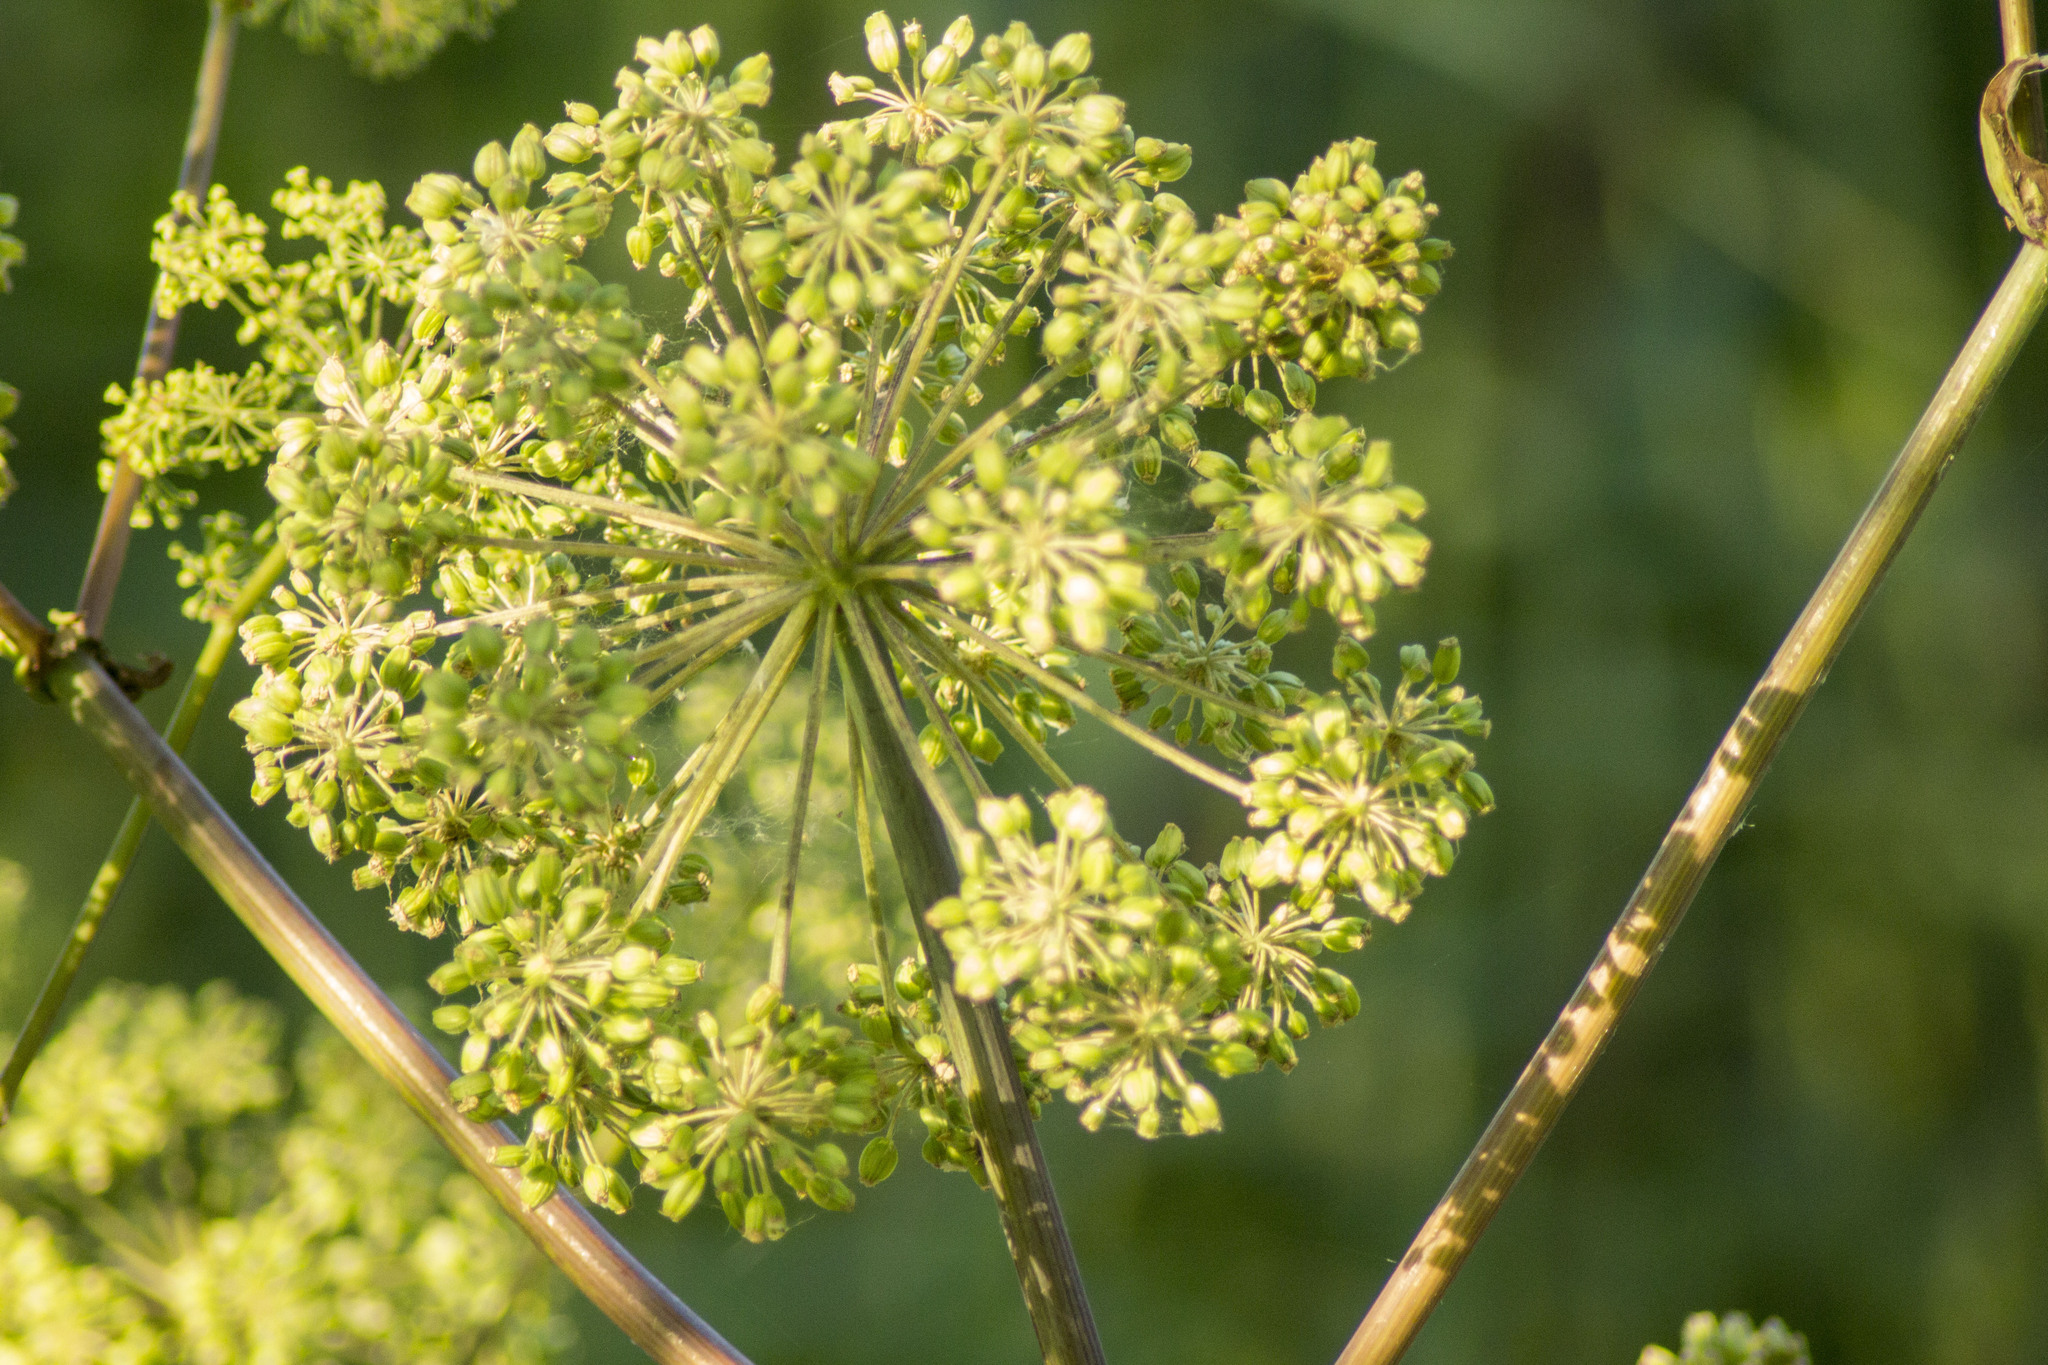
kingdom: Plantae
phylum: Tracheophyta
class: Magnoliopsida
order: Apiales
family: Apiaceae
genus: Angelica
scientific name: Angelica archangelica
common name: Garden angelica
